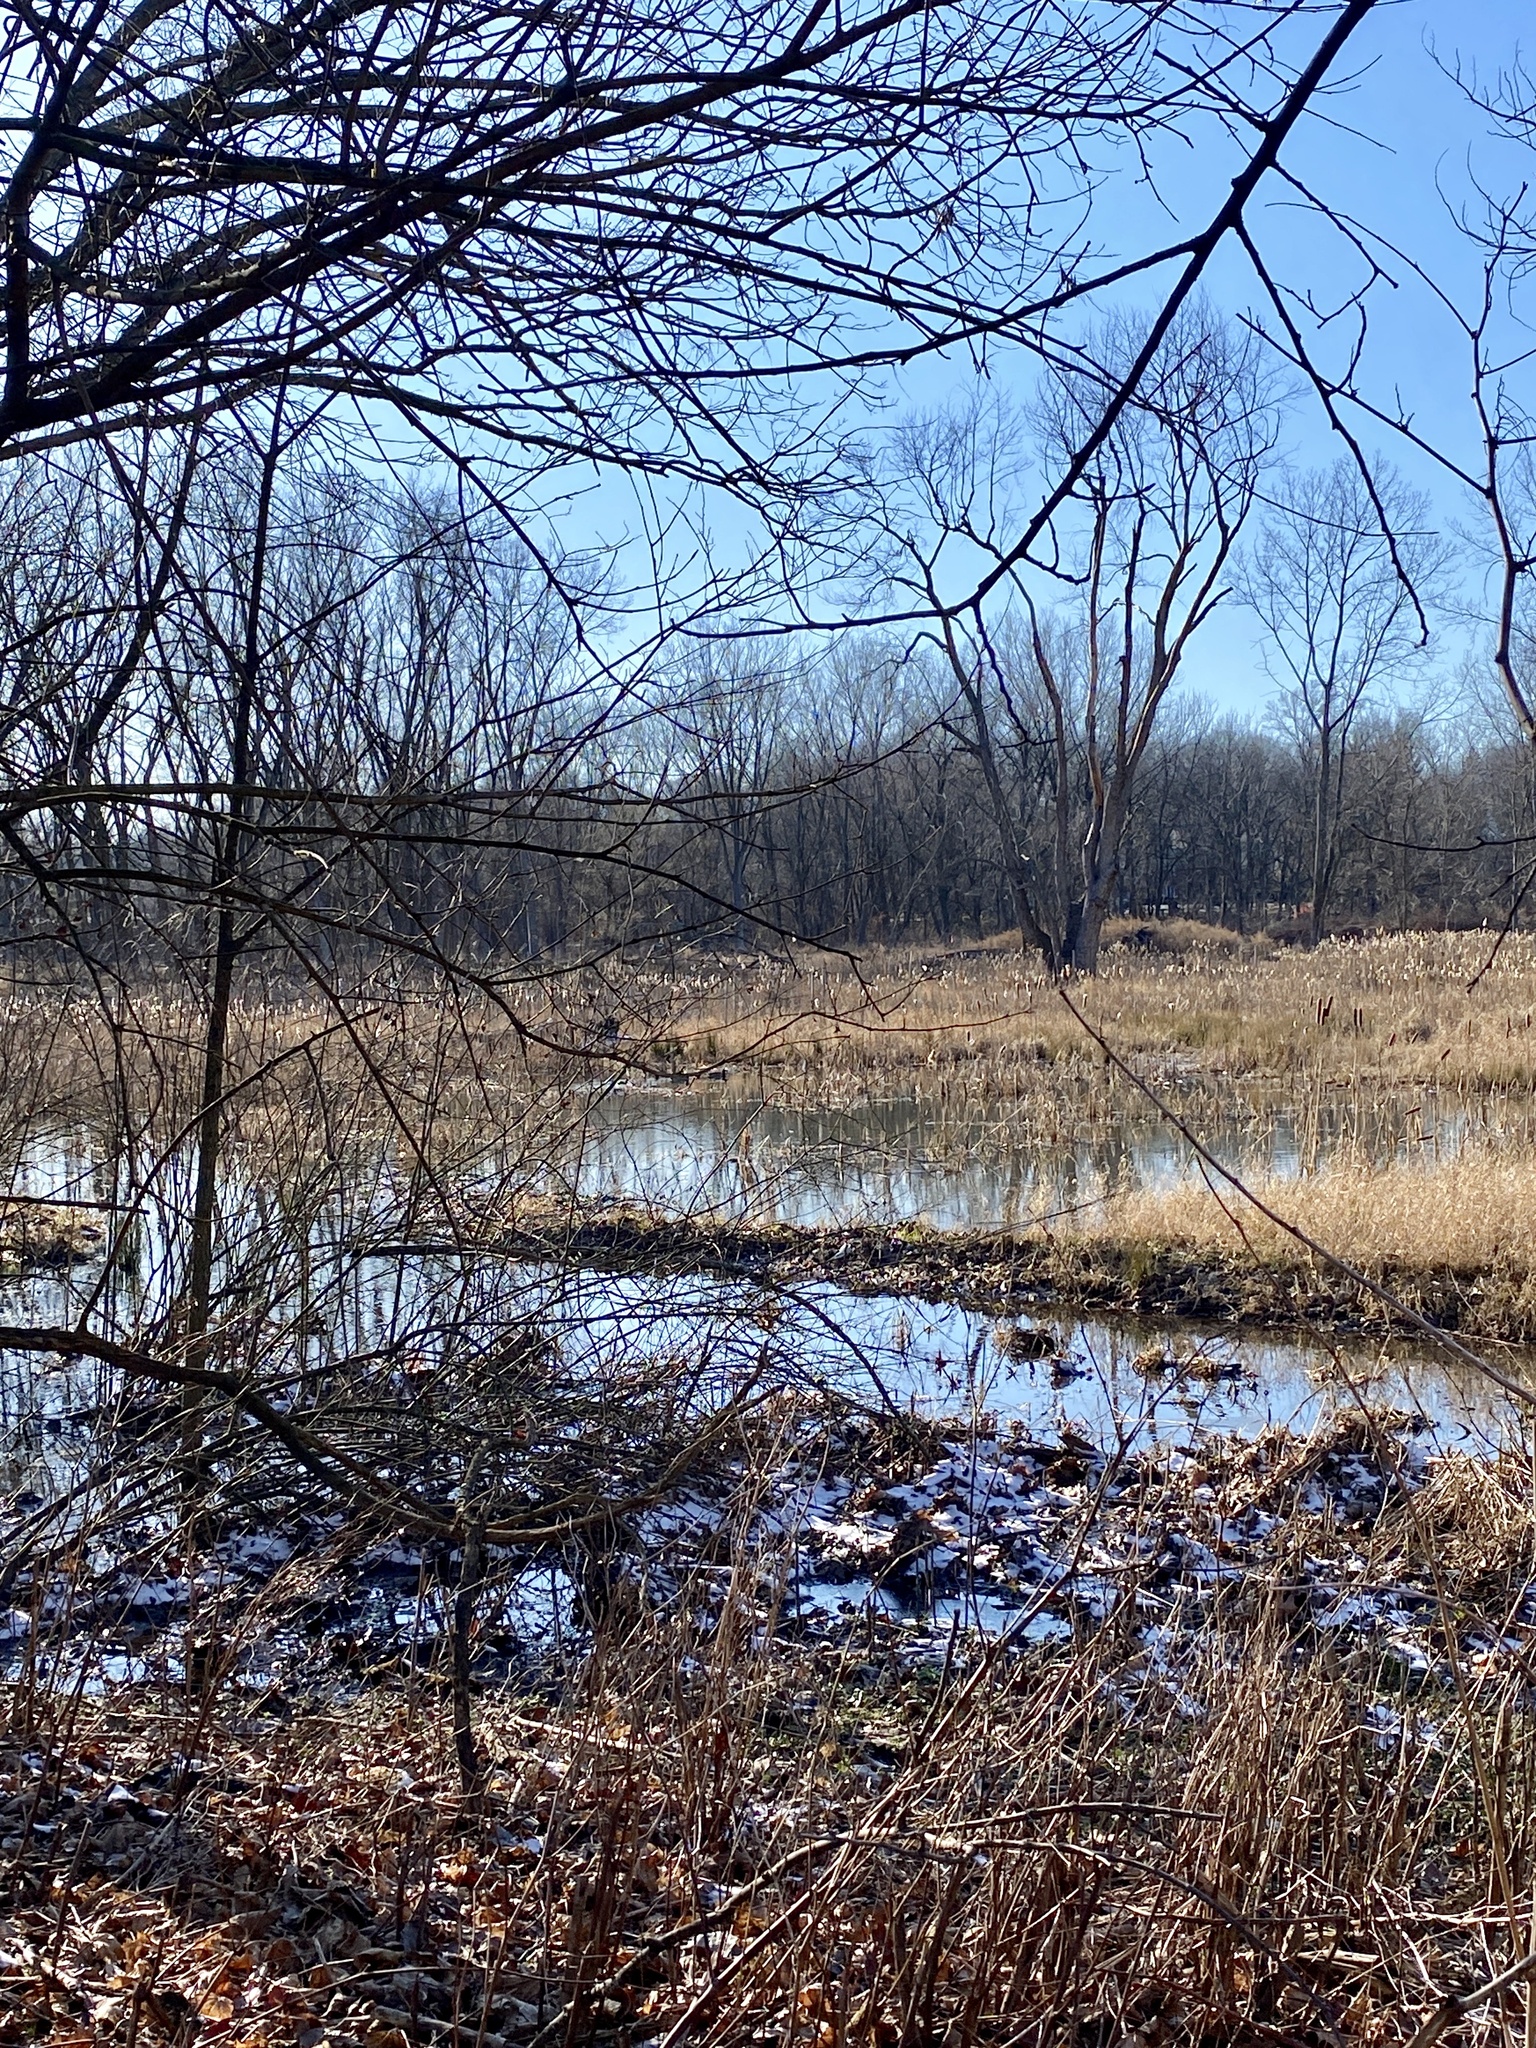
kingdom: Animalia
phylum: Chordata
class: Aves
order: Anseriformes
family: Anatidae
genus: Anas
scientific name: Anas platyrhynchos
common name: Mallard
